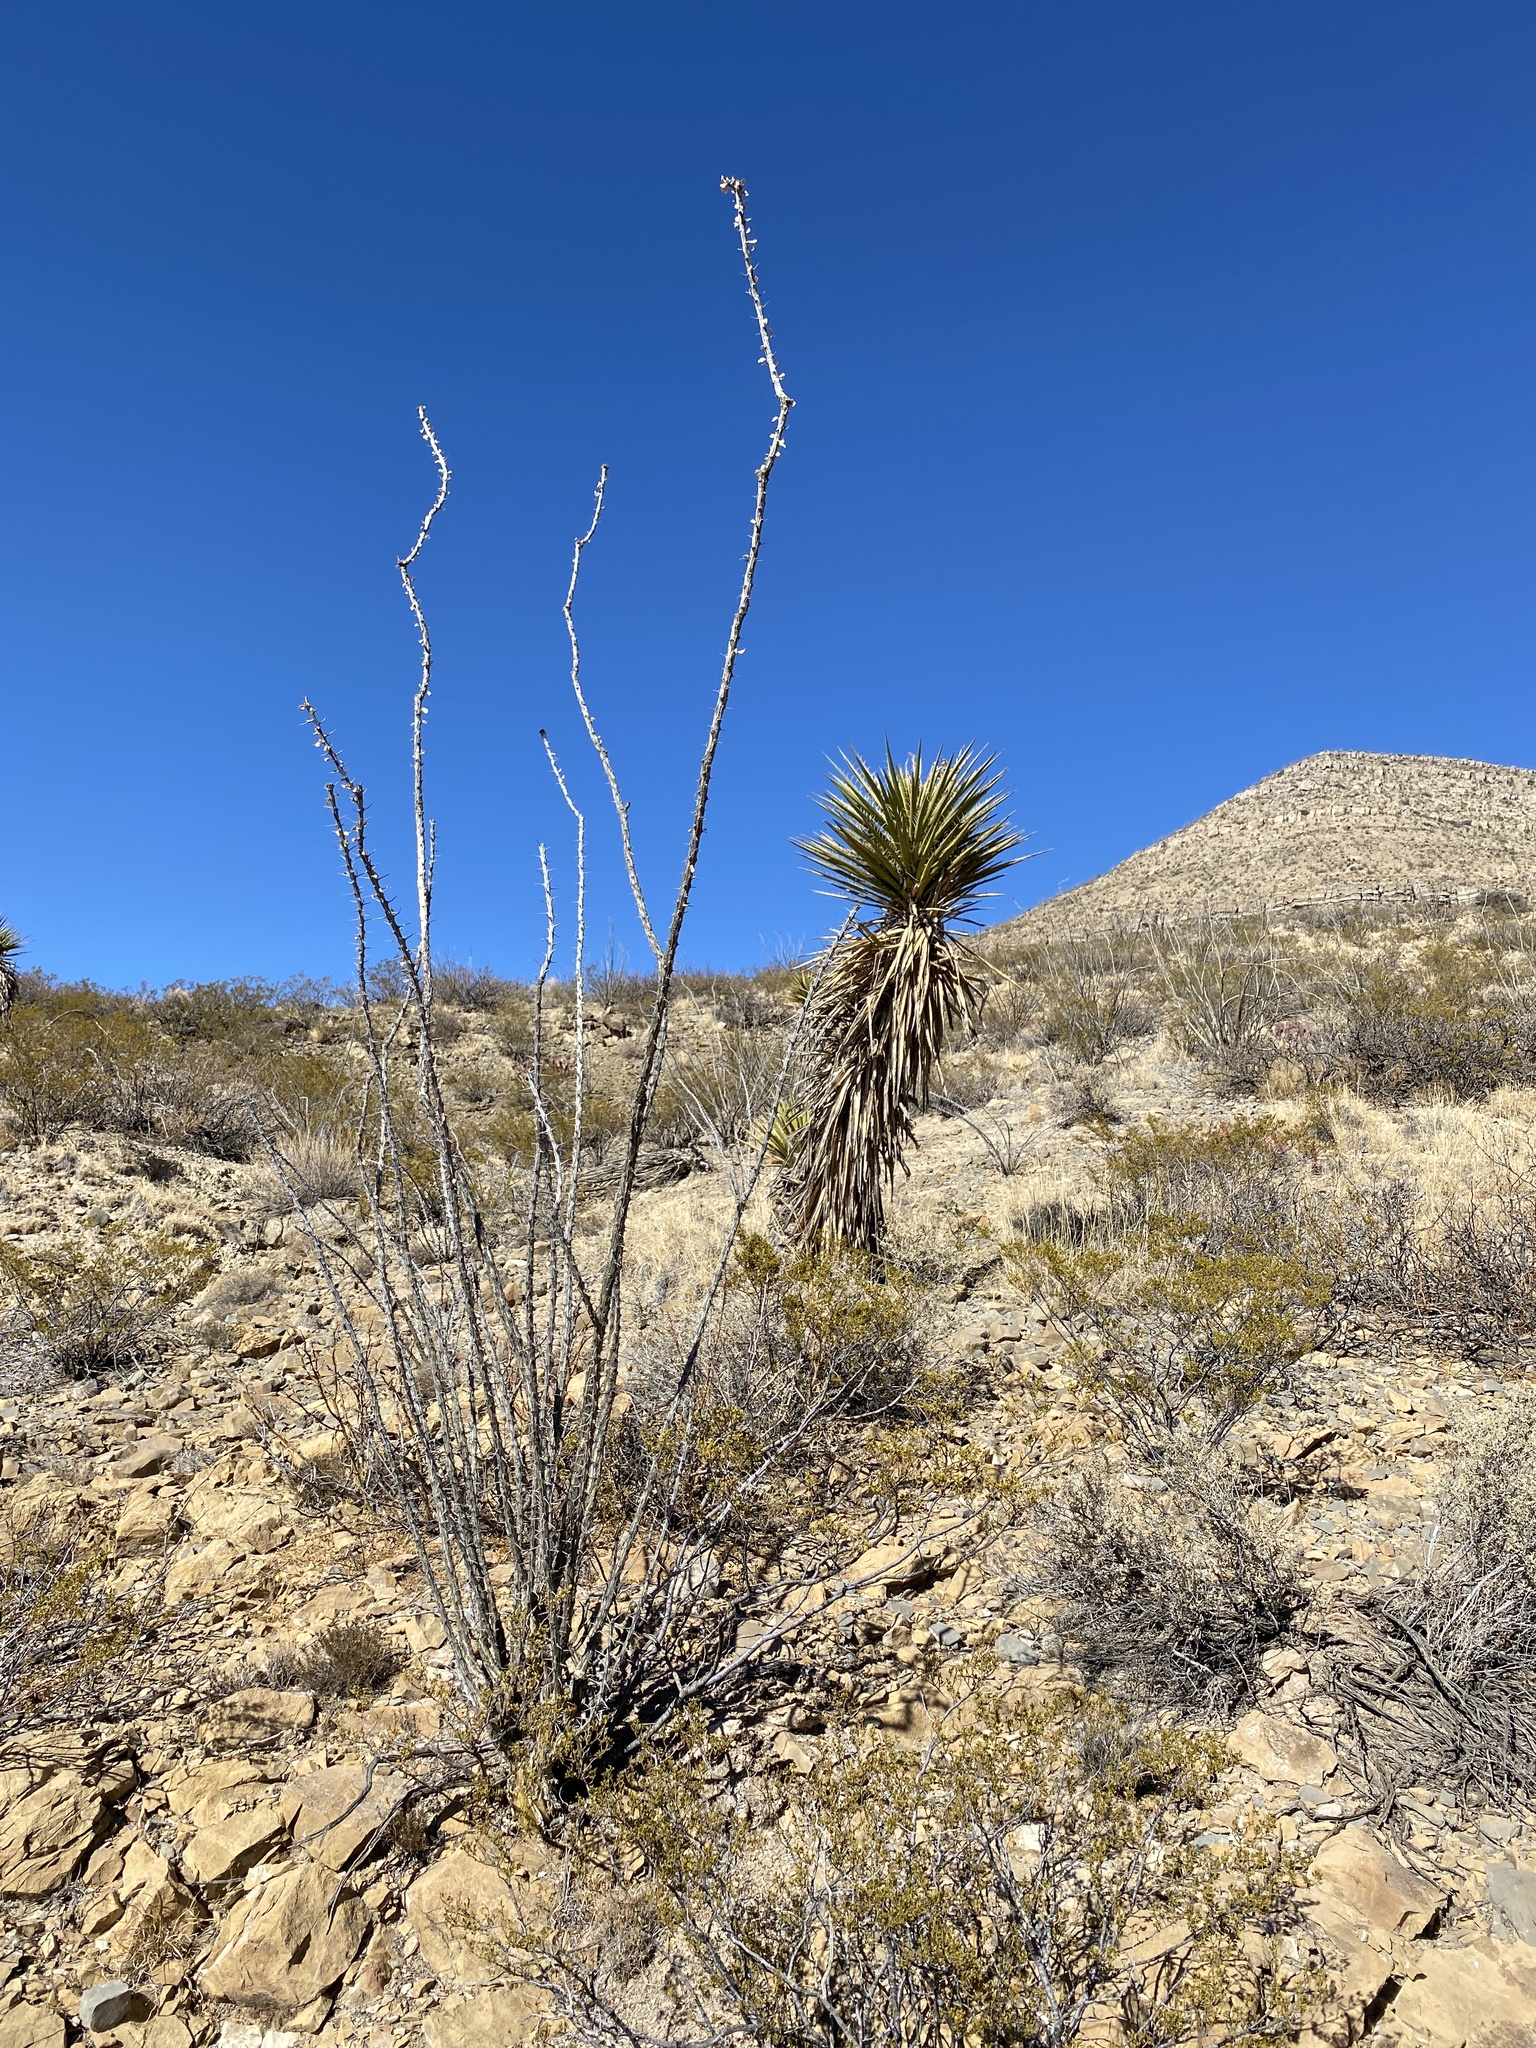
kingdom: Plantae
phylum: Tracheophyta
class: Magnoliopsida
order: Ericales
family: Fouquieriaceae
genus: Fouquieria
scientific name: Fouquieria splendens
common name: Vine-cactus
